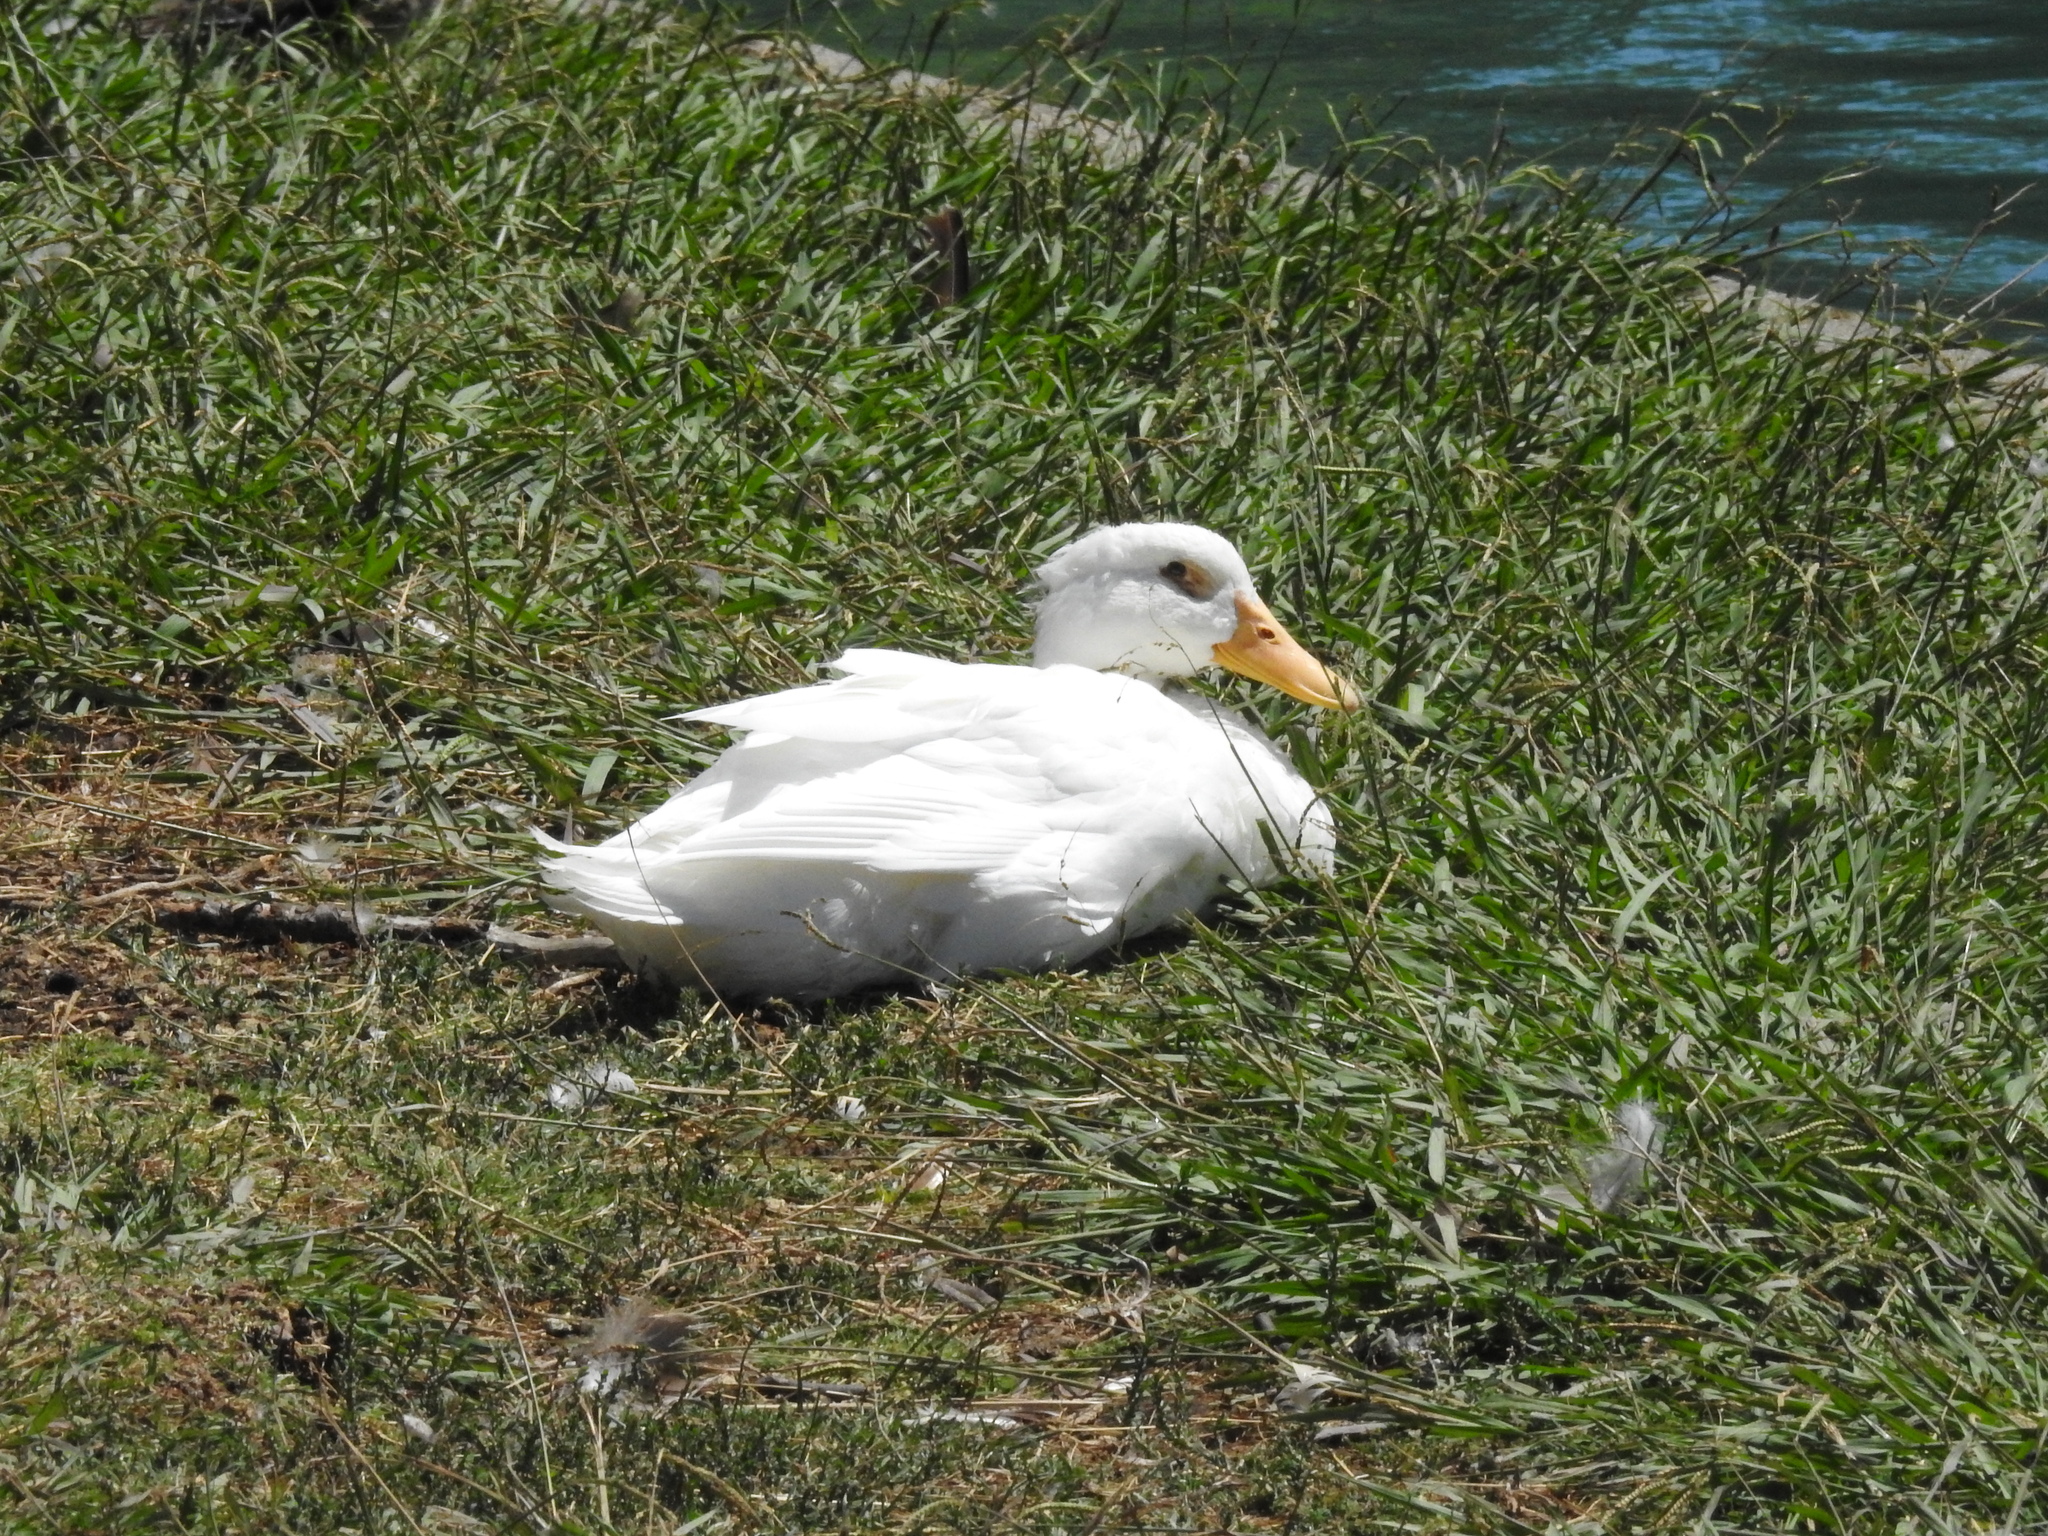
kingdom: Animalia
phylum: Chordata
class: Aves
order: Anseriformes
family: Anatidae
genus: Anas
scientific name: Anas platyrhynchos
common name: Mallard
